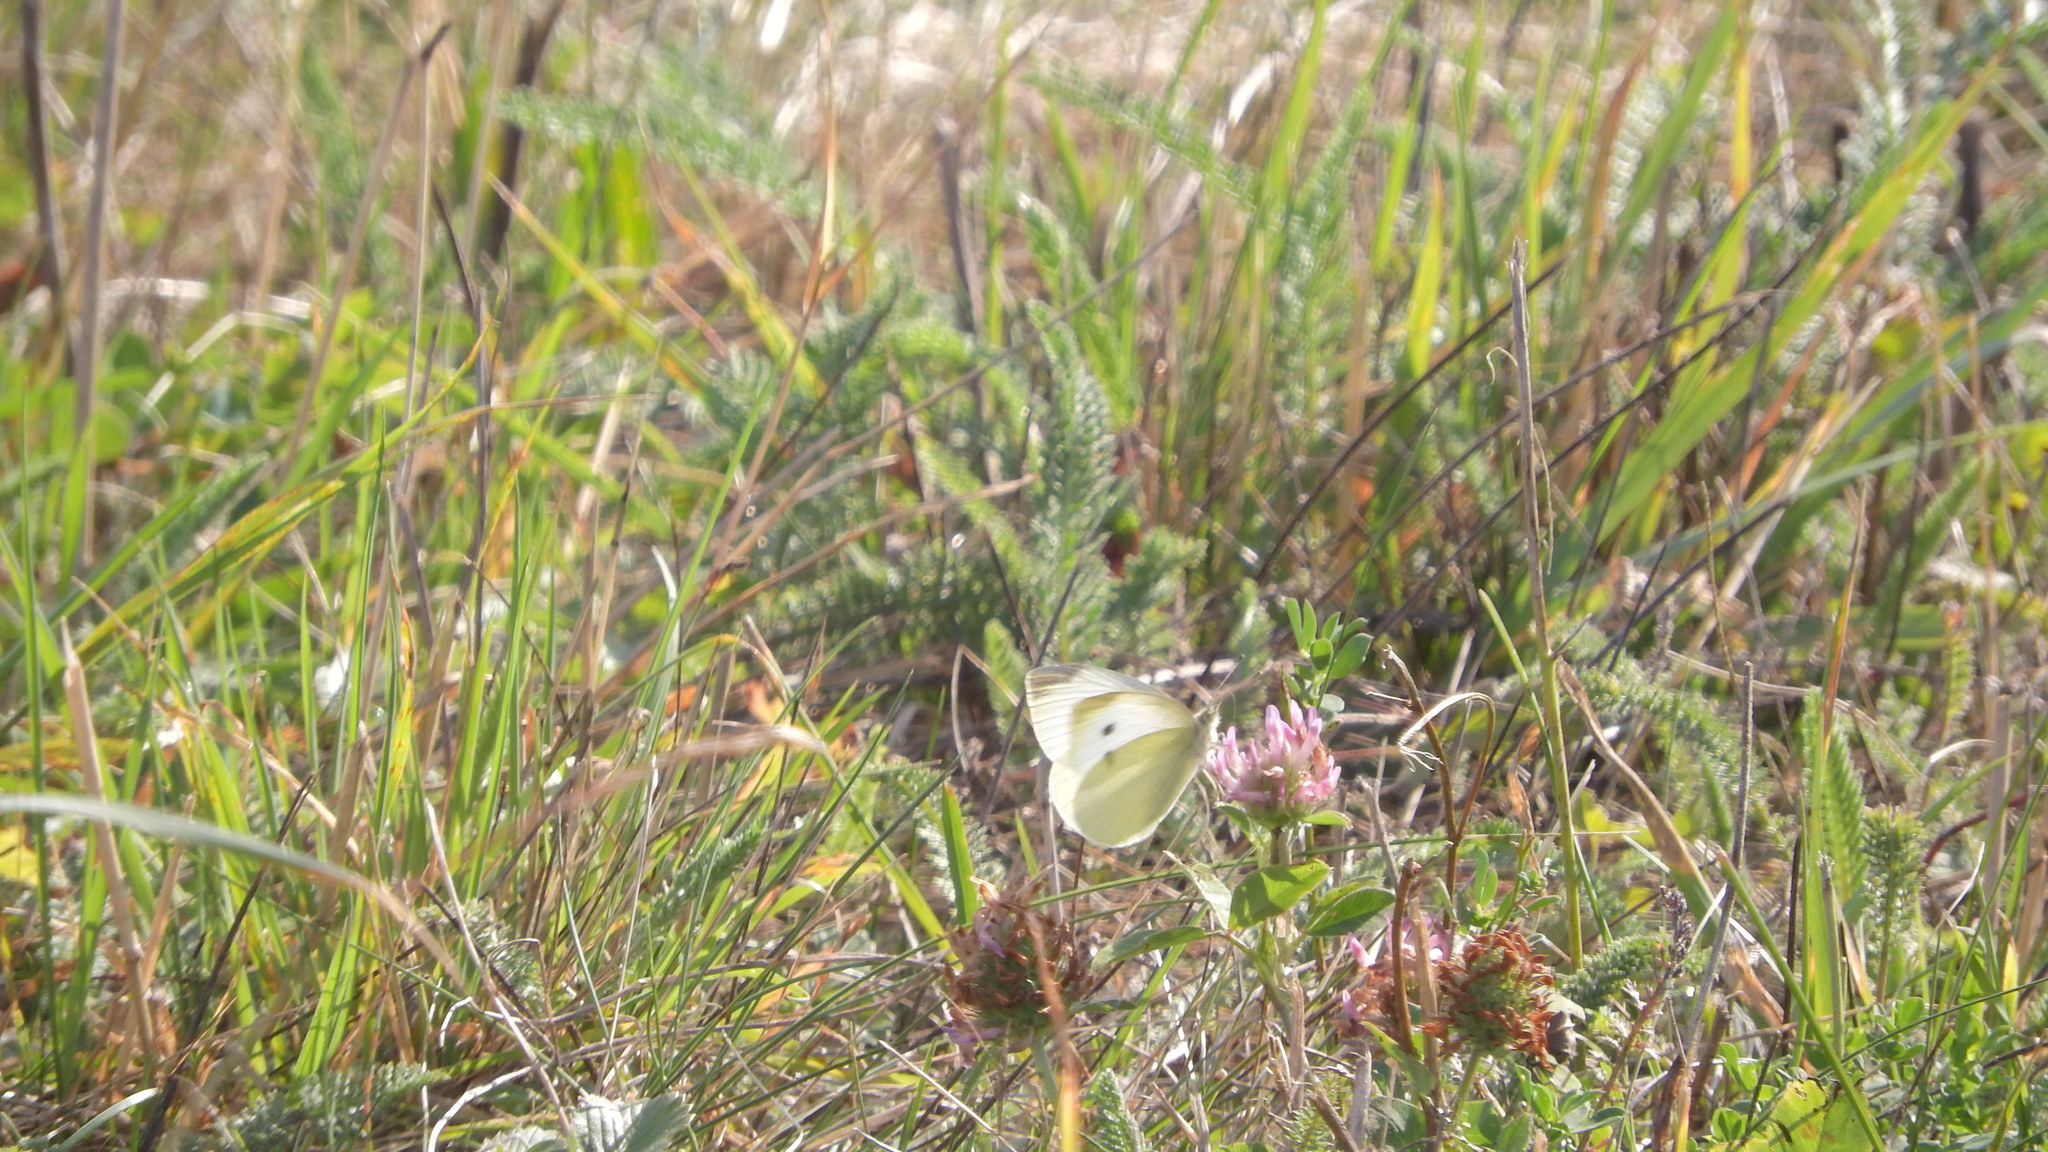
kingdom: Animalia
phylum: Arthropoda
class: Insecta
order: Lepidoptera
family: Pieridae
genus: Pieris
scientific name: Pieris rapae
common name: Small white
